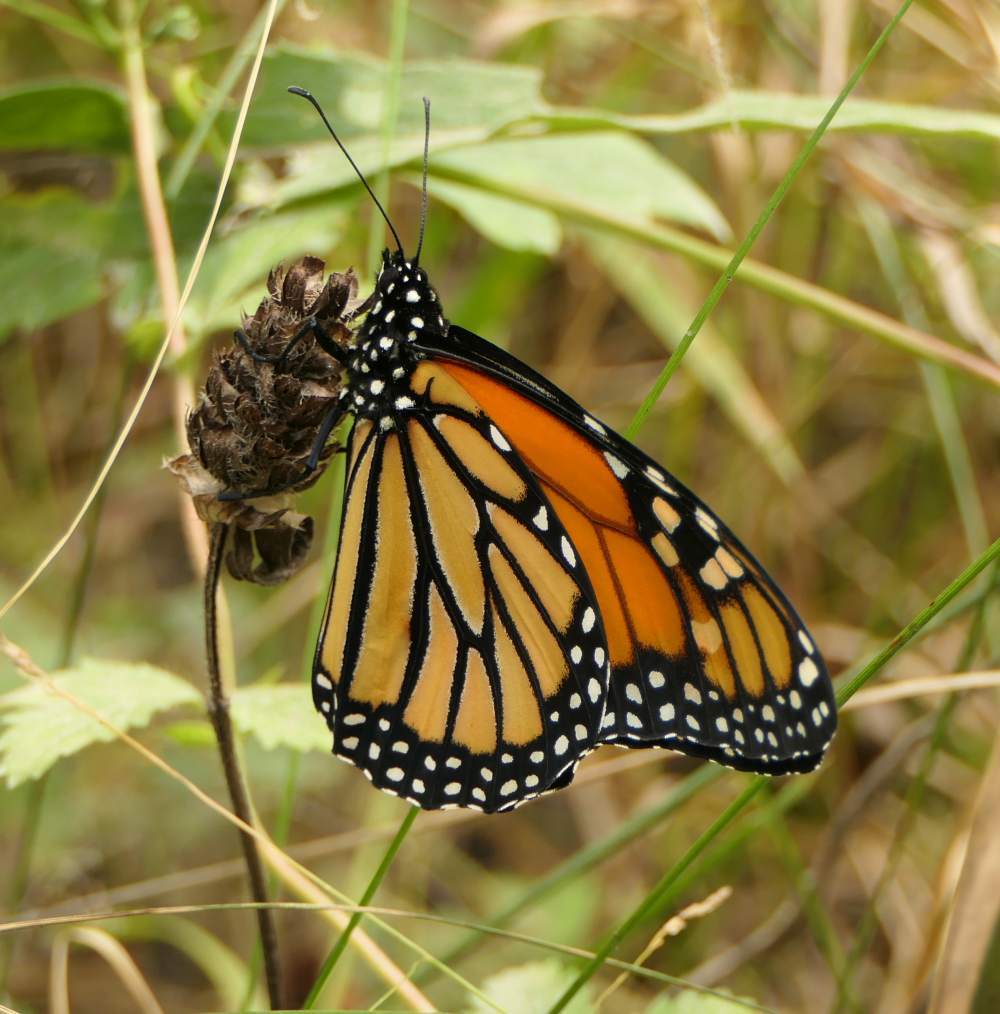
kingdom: Animalia
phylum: Arthropoda
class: Insecta
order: Lepidoptera
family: Nymphalidae
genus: Danaus
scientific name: Danaus plexippus
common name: Monarch
